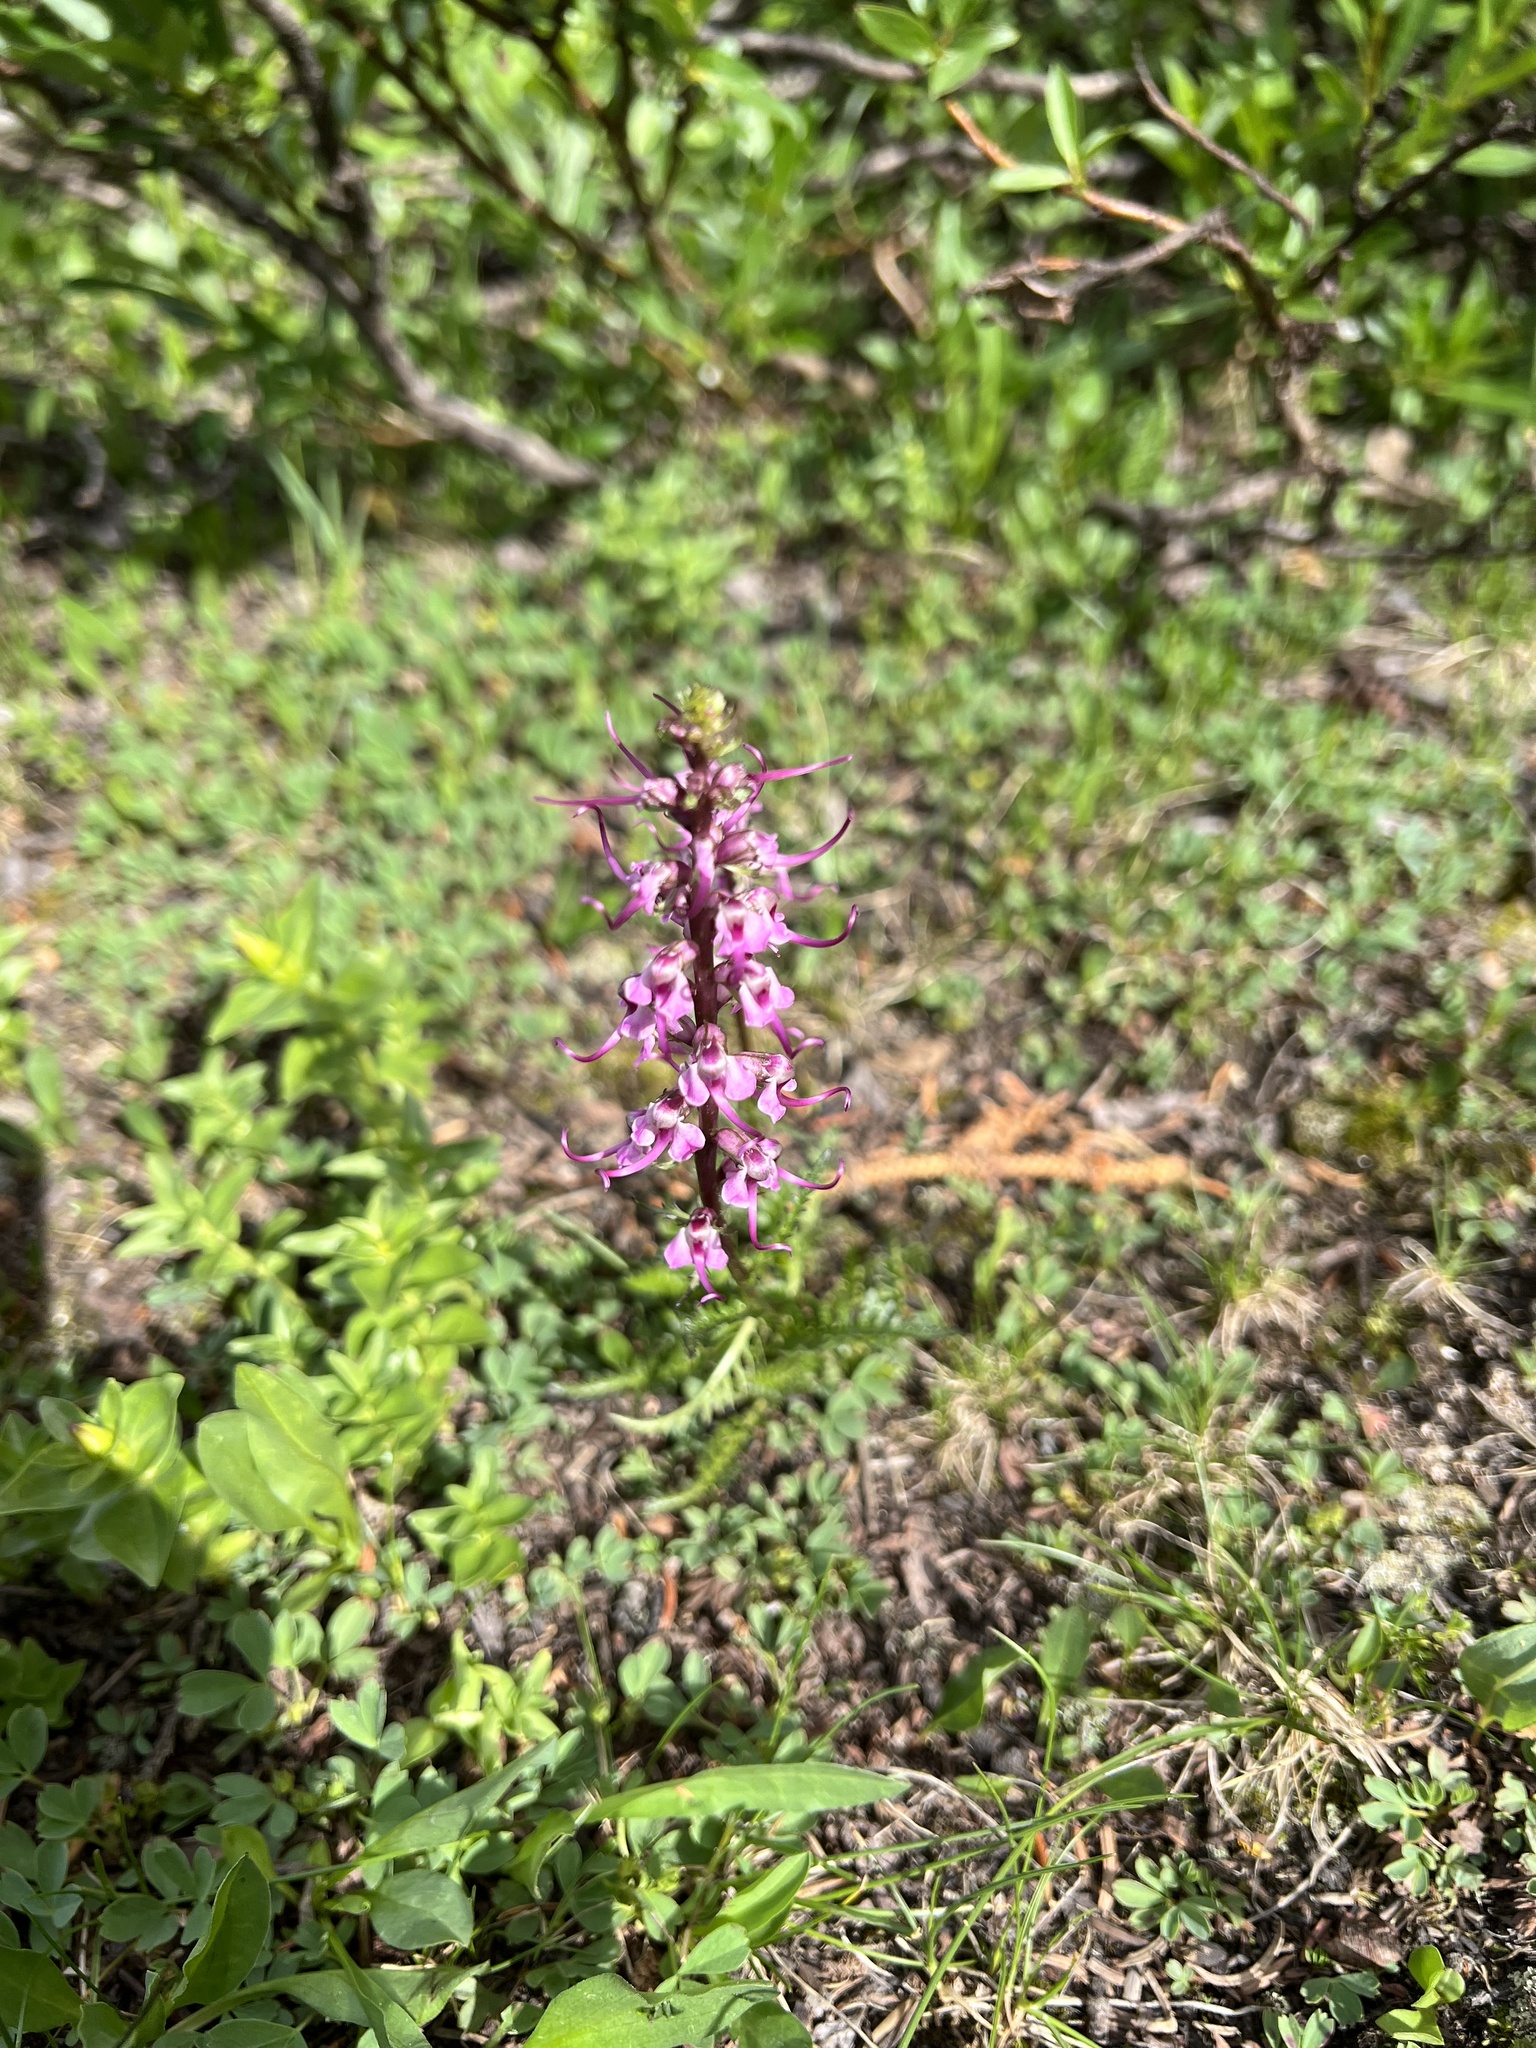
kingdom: Plantae
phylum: Tracheophyta
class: Magnoliopsida
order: Lamiales
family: Orobanchaceae
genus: Pedicularis
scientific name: Pedicularis groenlandica
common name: Elephant's-head
